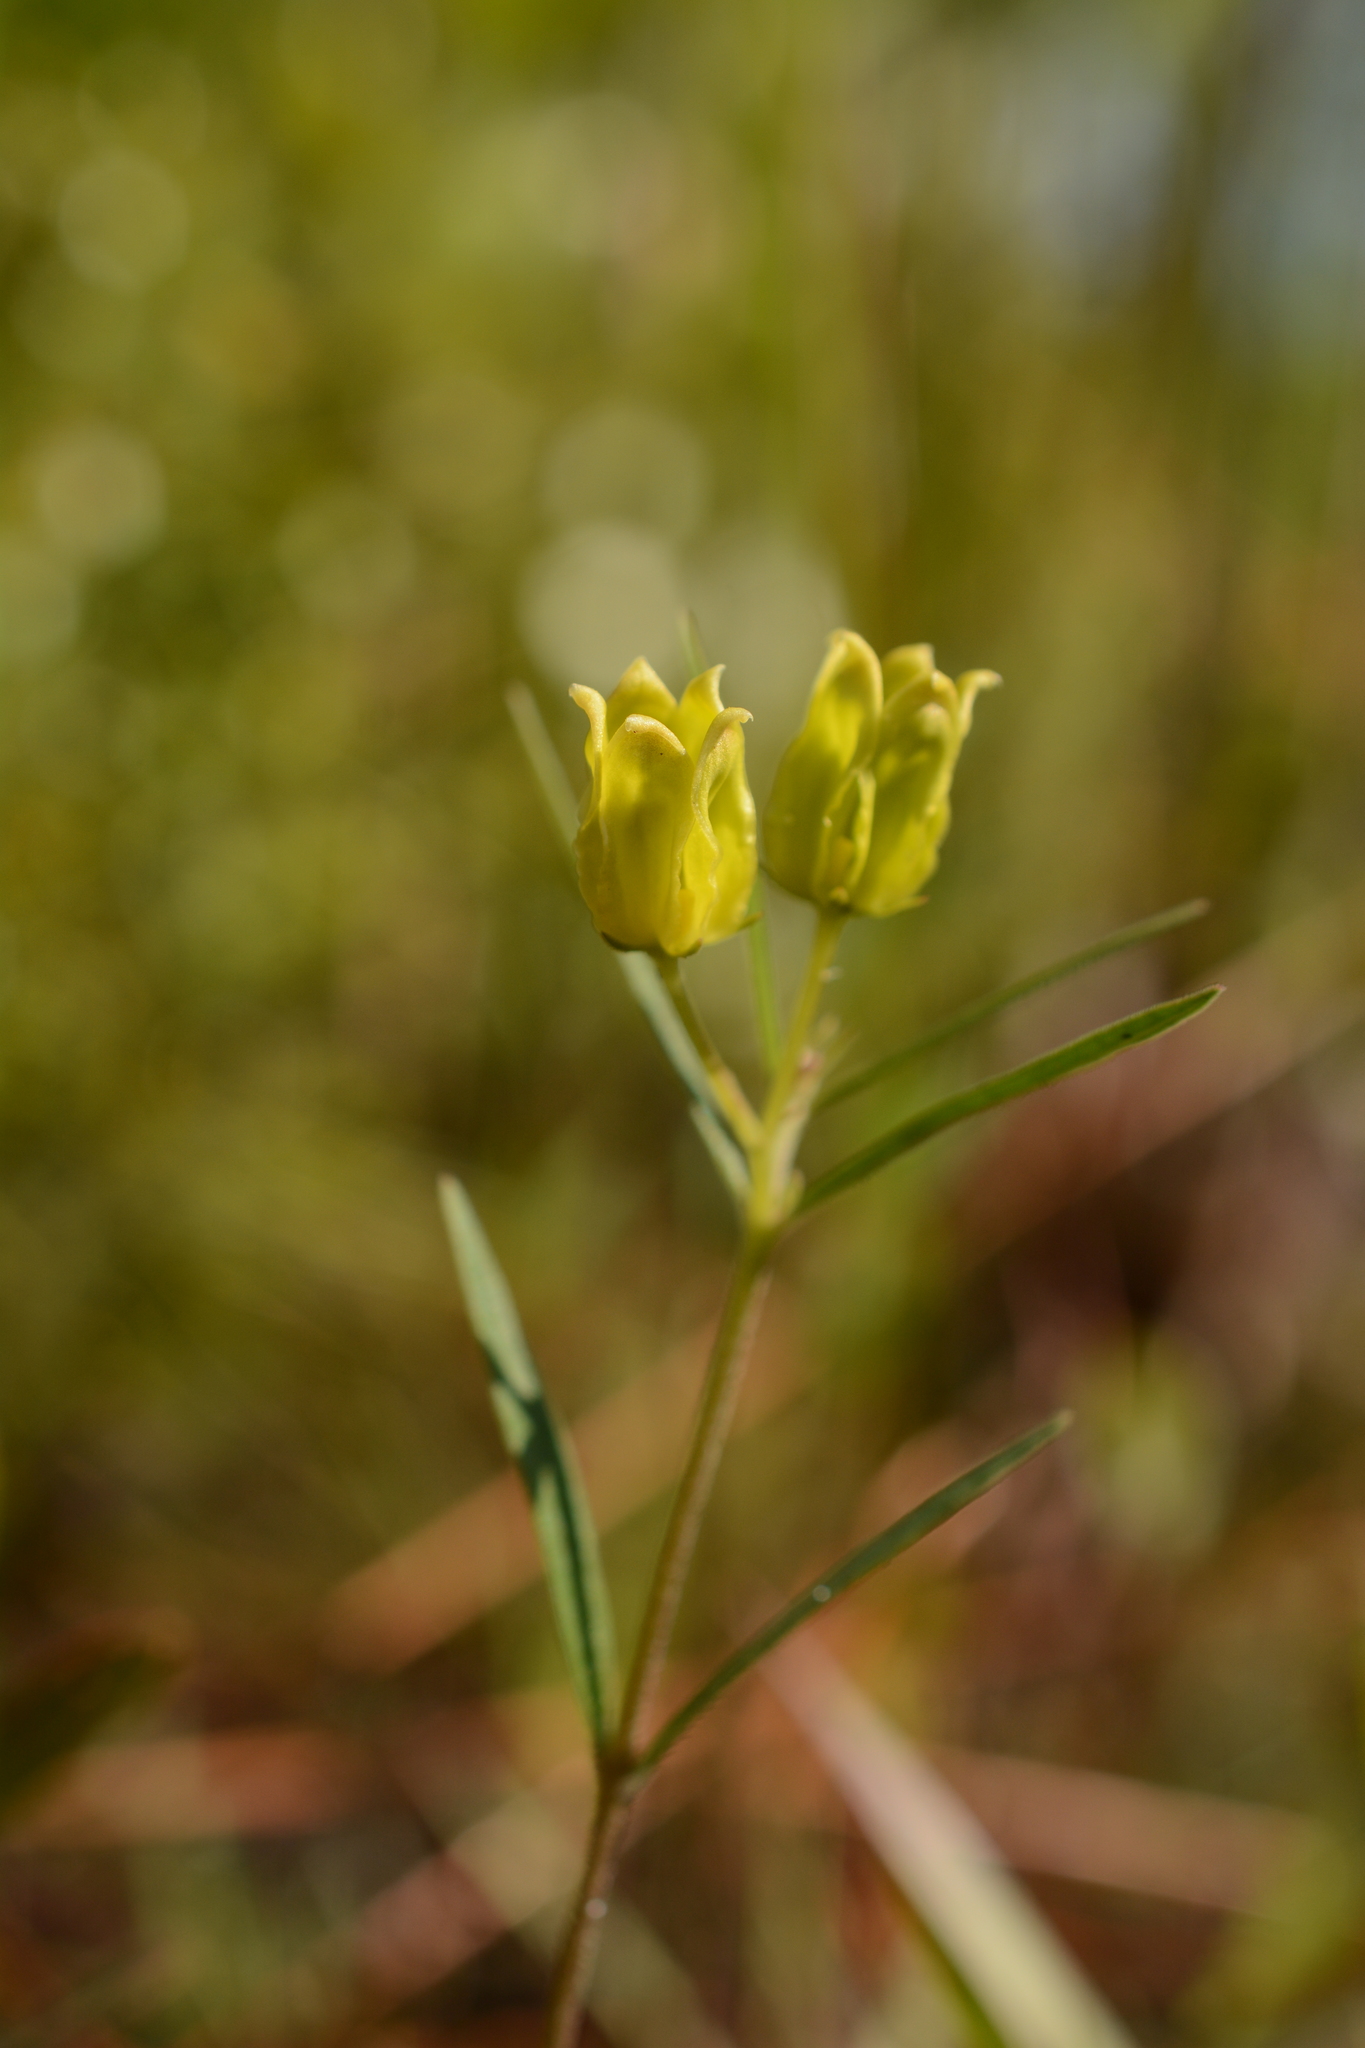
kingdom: Plantae
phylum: Tracheophyta
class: Magnoliopsida
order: Gentianales
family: Apocynaceae
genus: Asclepias
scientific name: Asclepias pedicellata
